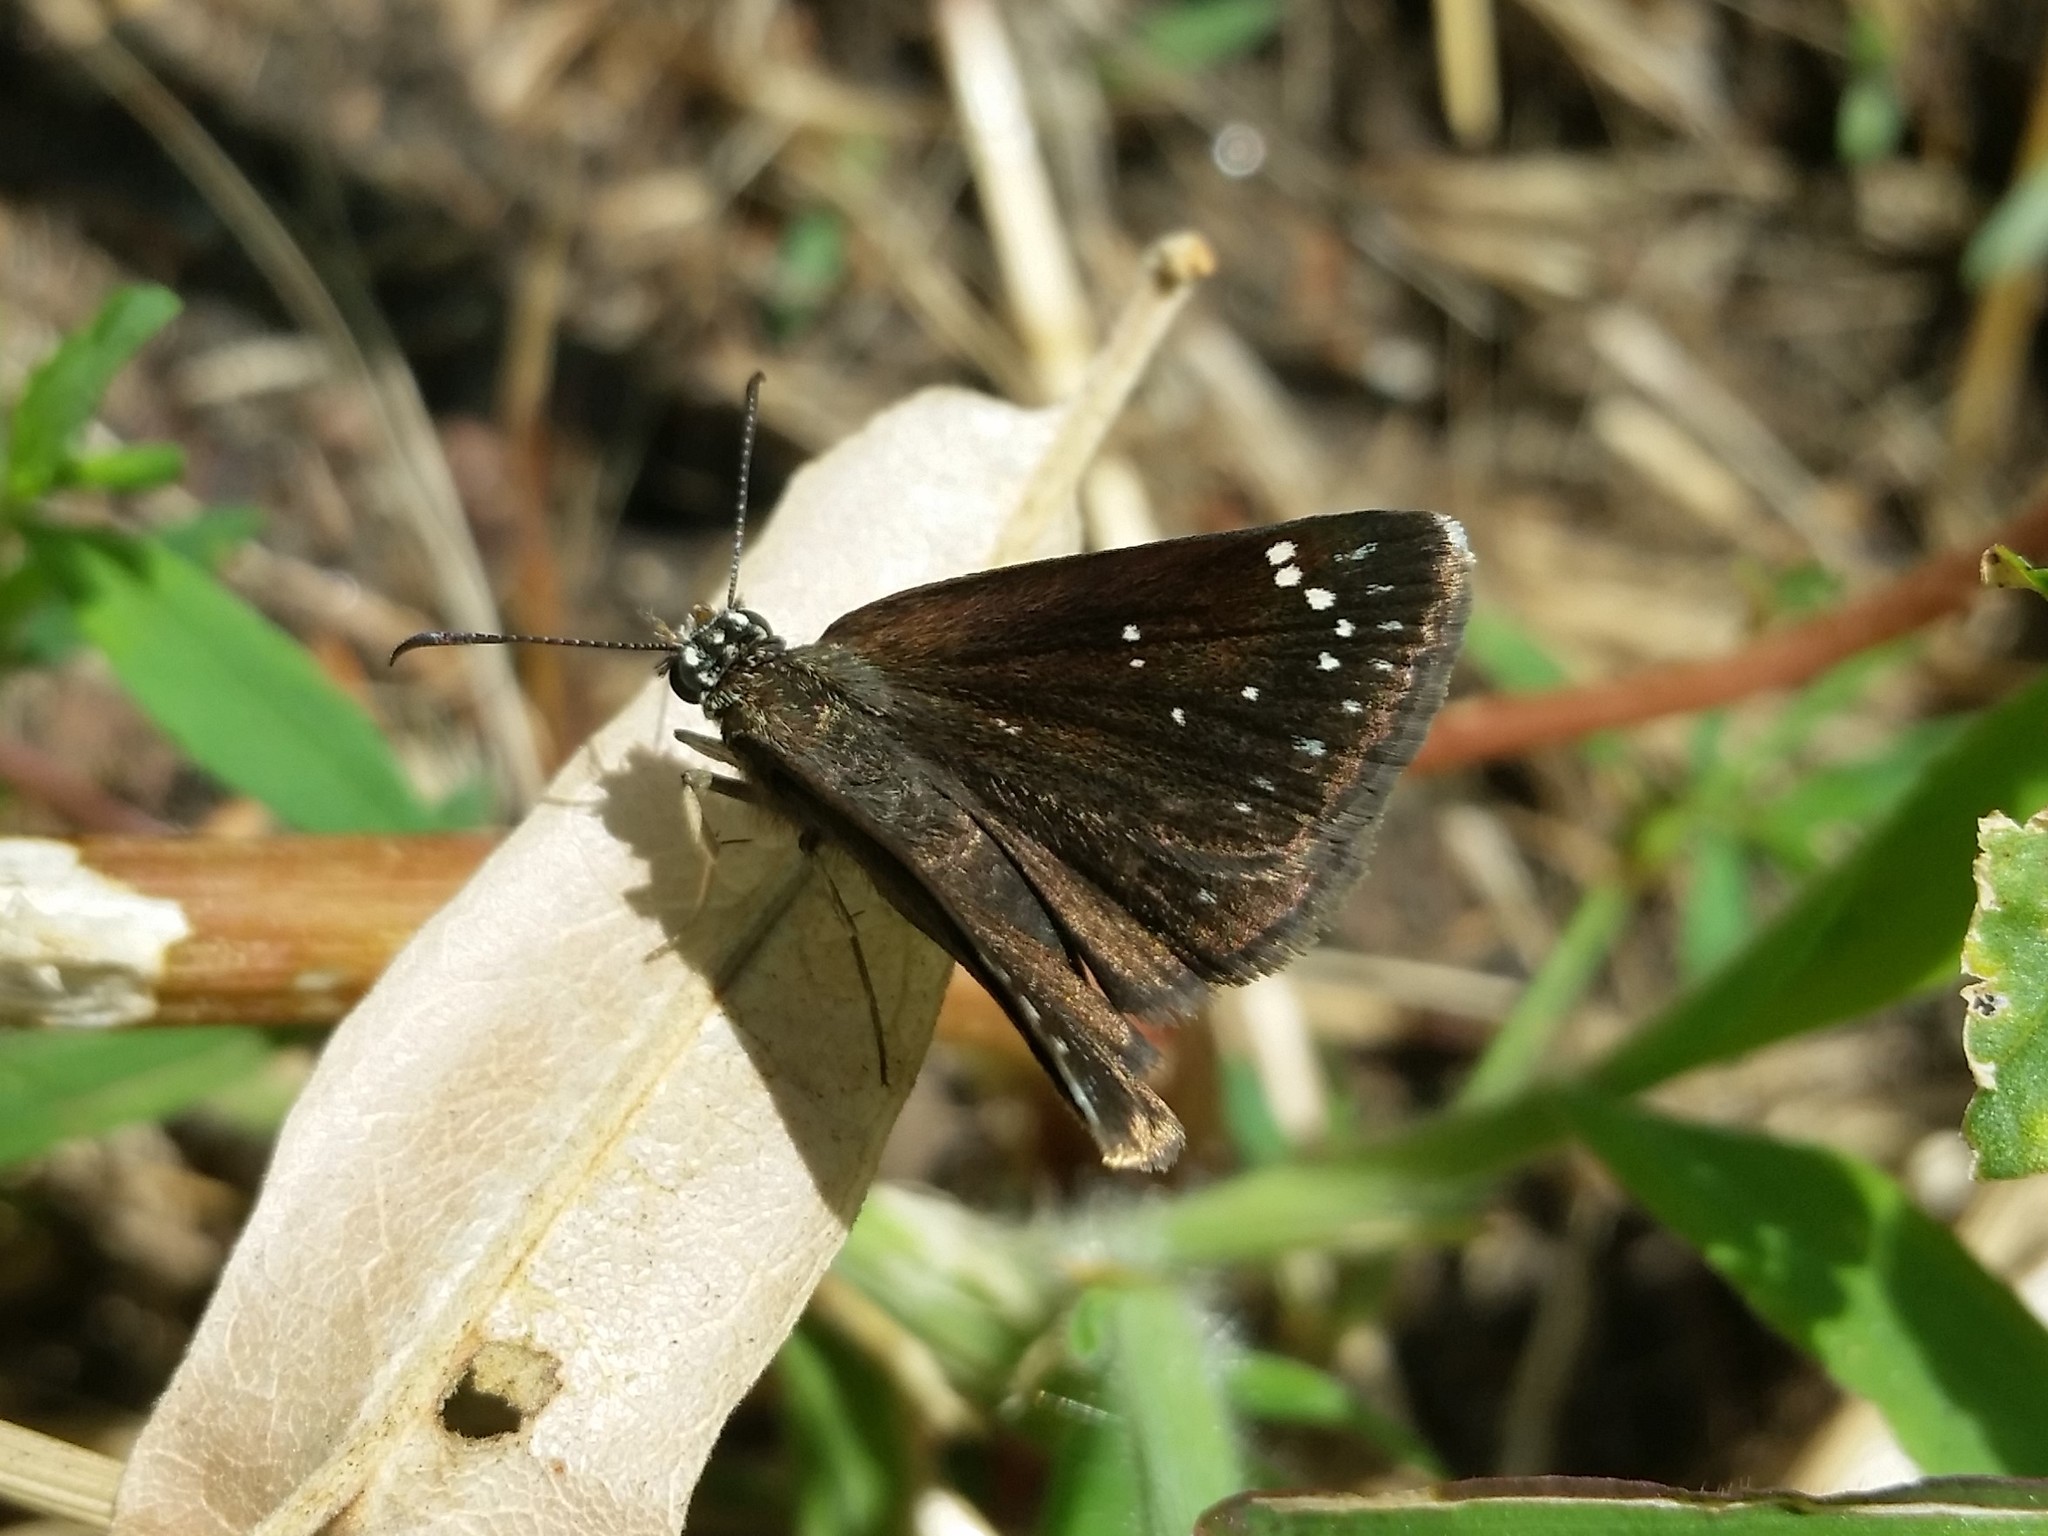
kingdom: Animalia
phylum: Arthropoda
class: Insecta
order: Lepidoptera
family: Hesperiidae
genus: Pholisora
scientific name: Pholisora catullus
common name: Common sootywing
